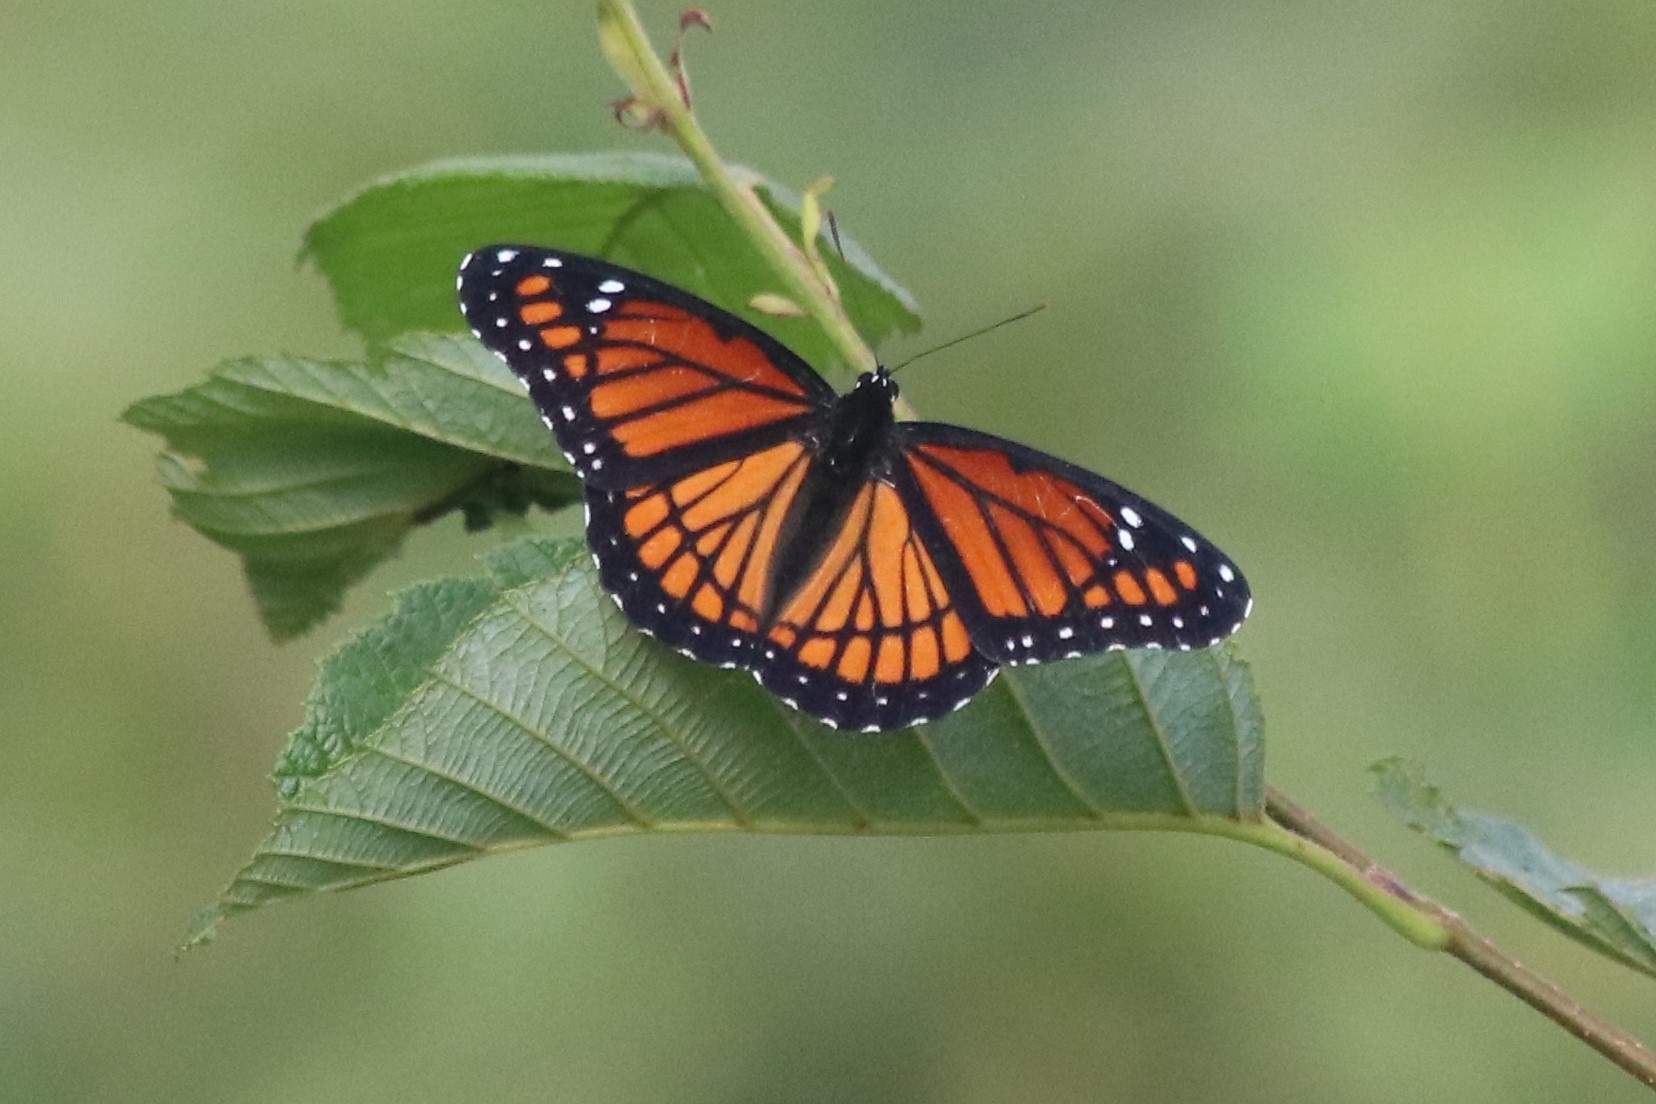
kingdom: Animalia
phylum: Arthropoda
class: Insecta
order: Lepidoptera
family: Nymphalidae
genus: Limenitis
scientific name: Limenitis archippus
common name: Viceroy
